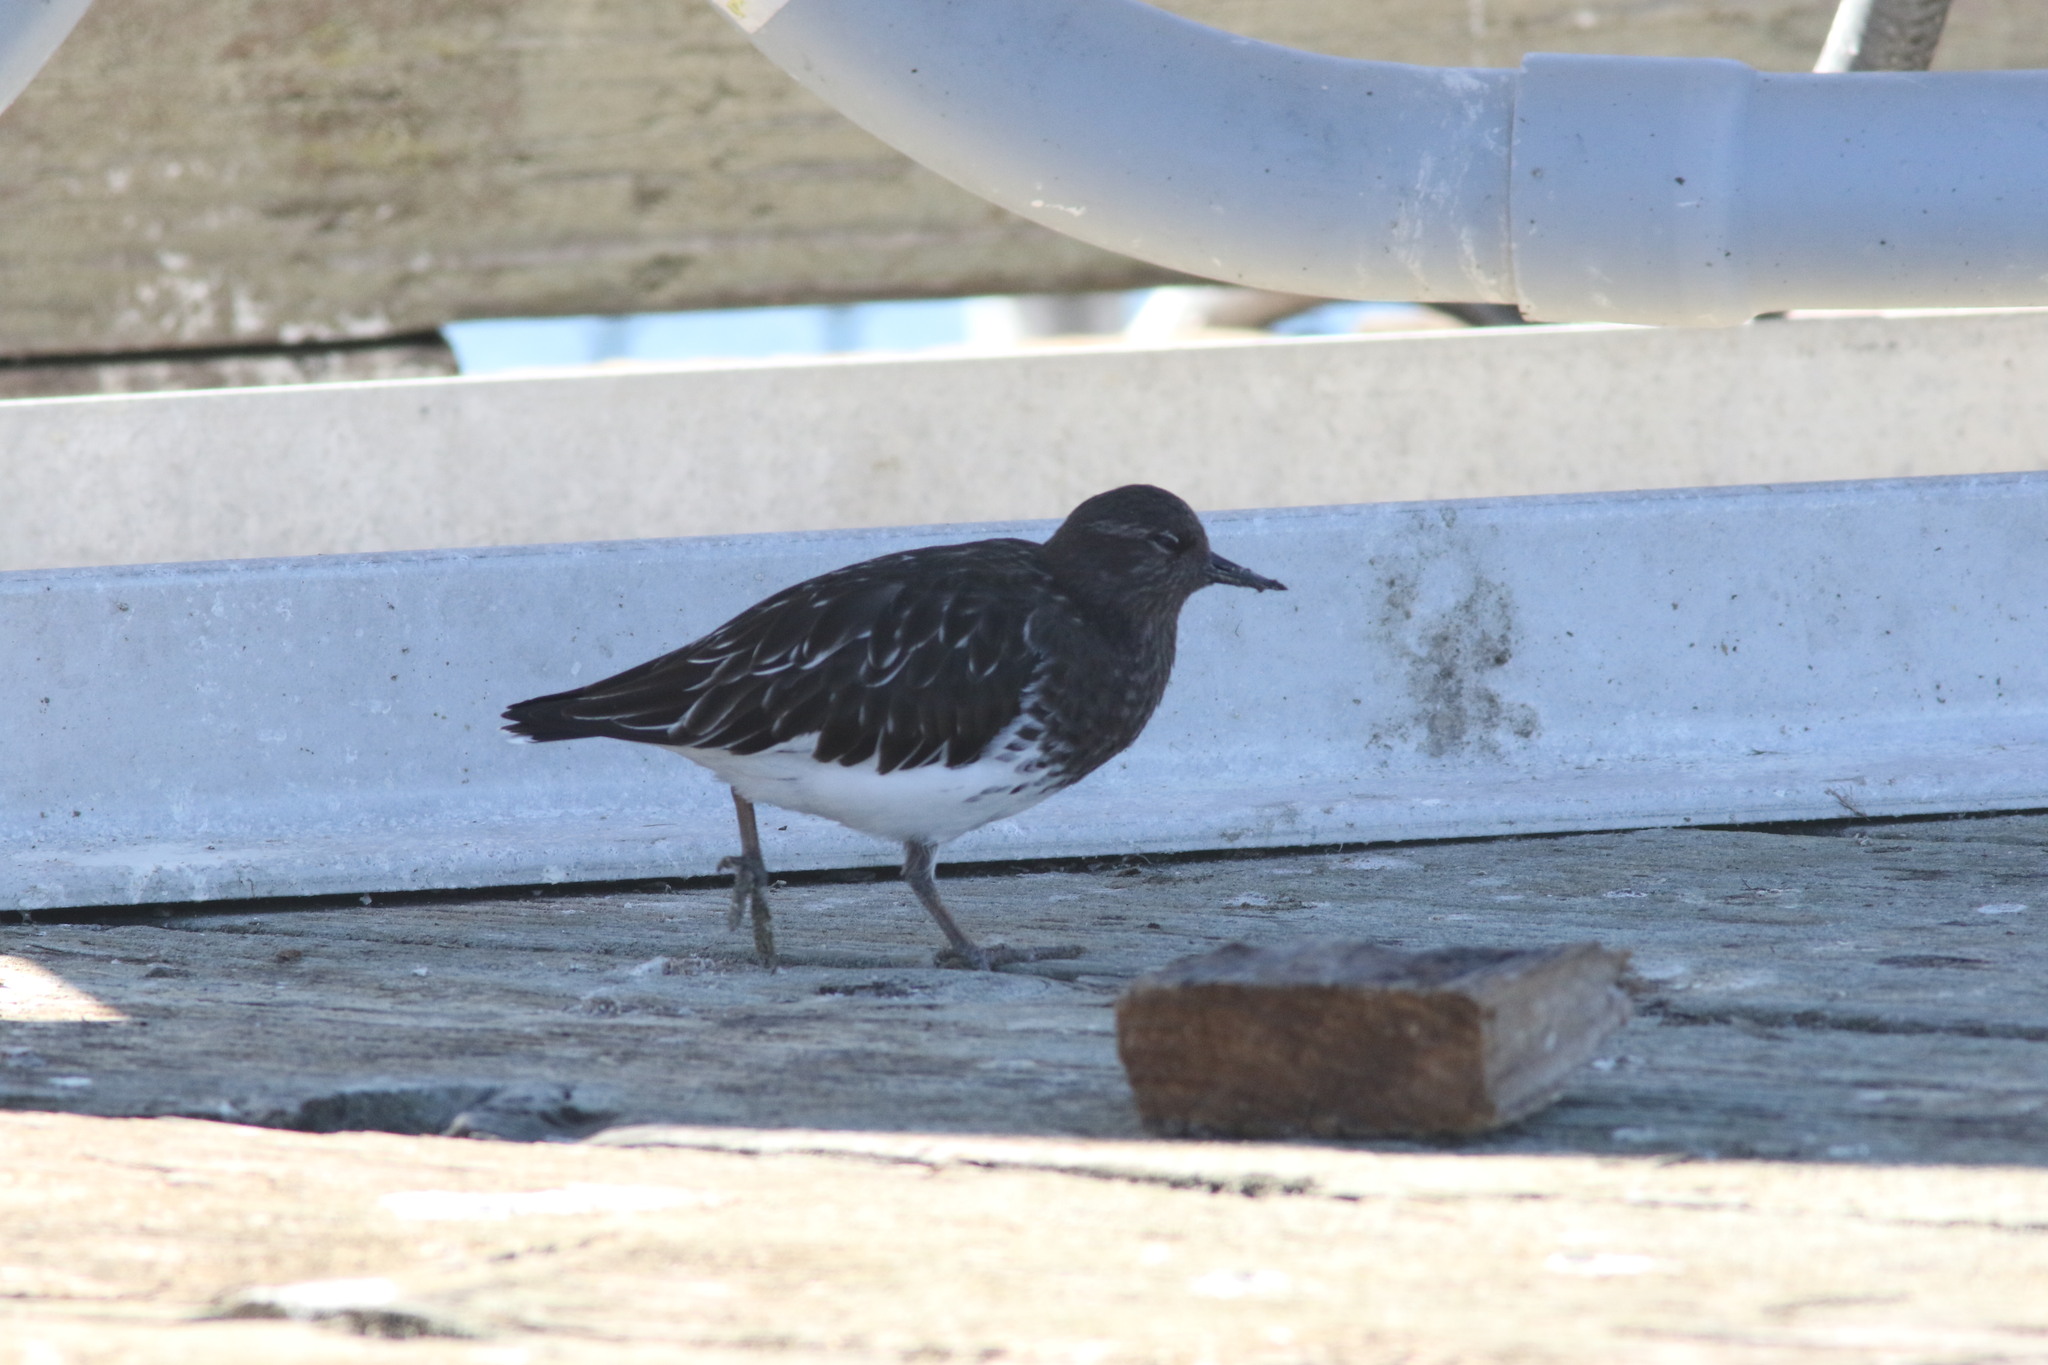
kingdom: Animalia
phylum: Chordata
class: Aves
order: Charadriiformes
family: Scolopacidae
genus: Arenaria
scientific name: Arenaria melanocephala
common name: Black turnstone
